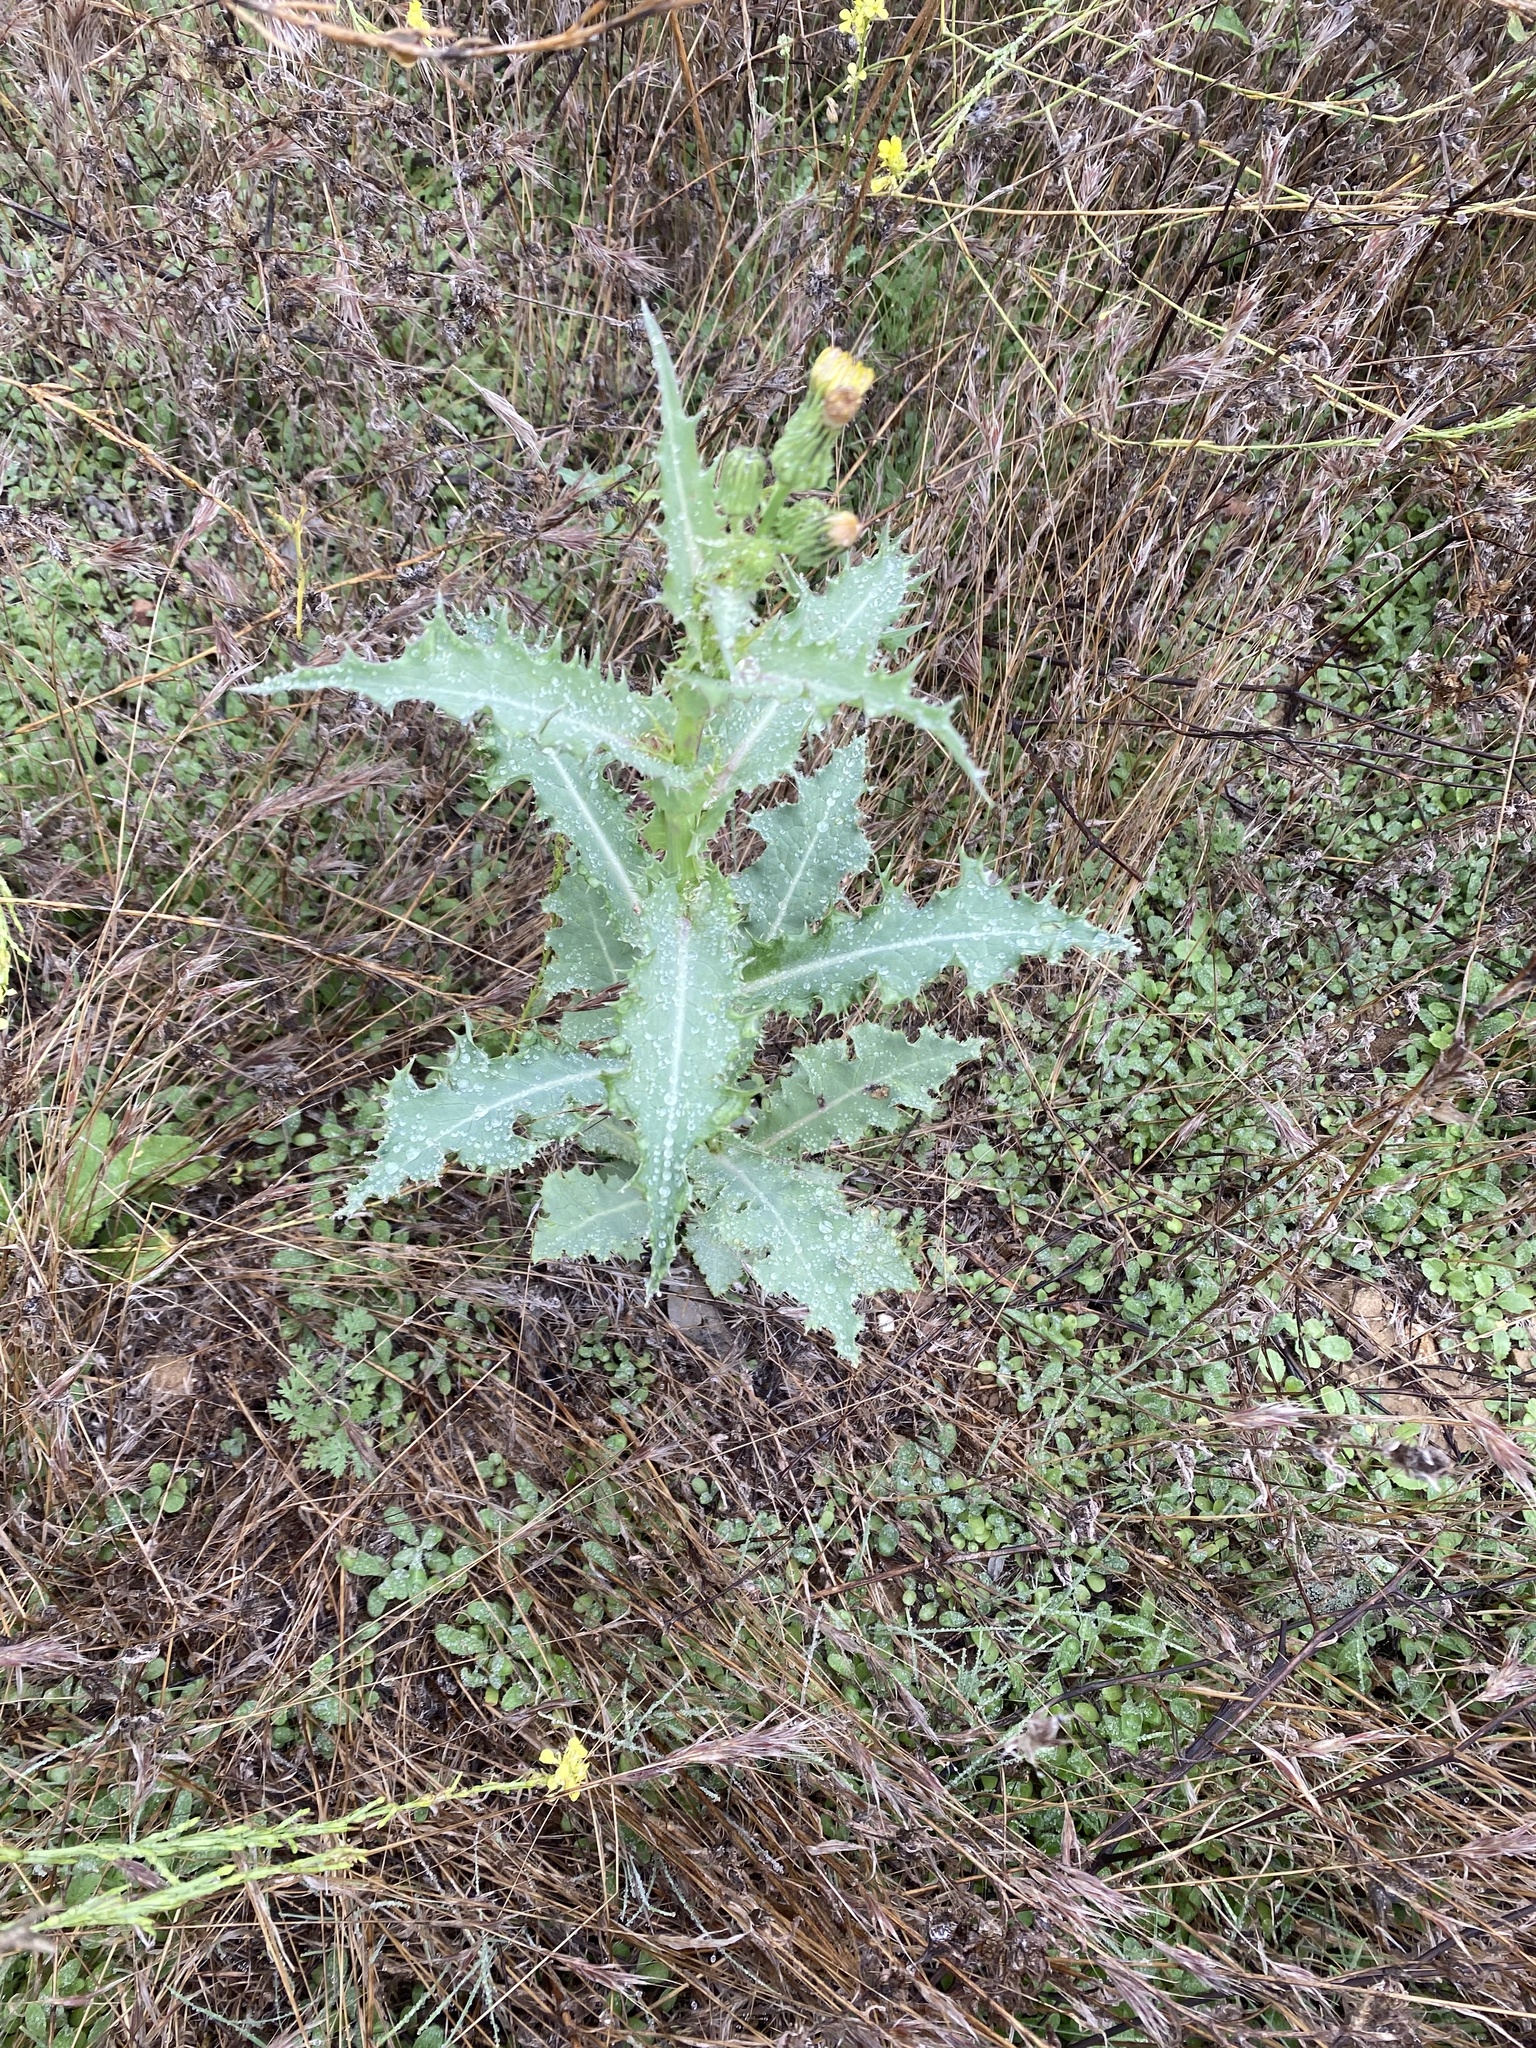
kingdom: Plantae
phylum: Tracheophyta
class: Magnoliopsida
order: Asterales
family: Asteraceae
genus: Sonchus
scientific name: Sonchus asper
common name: Prickly sow-thistle
